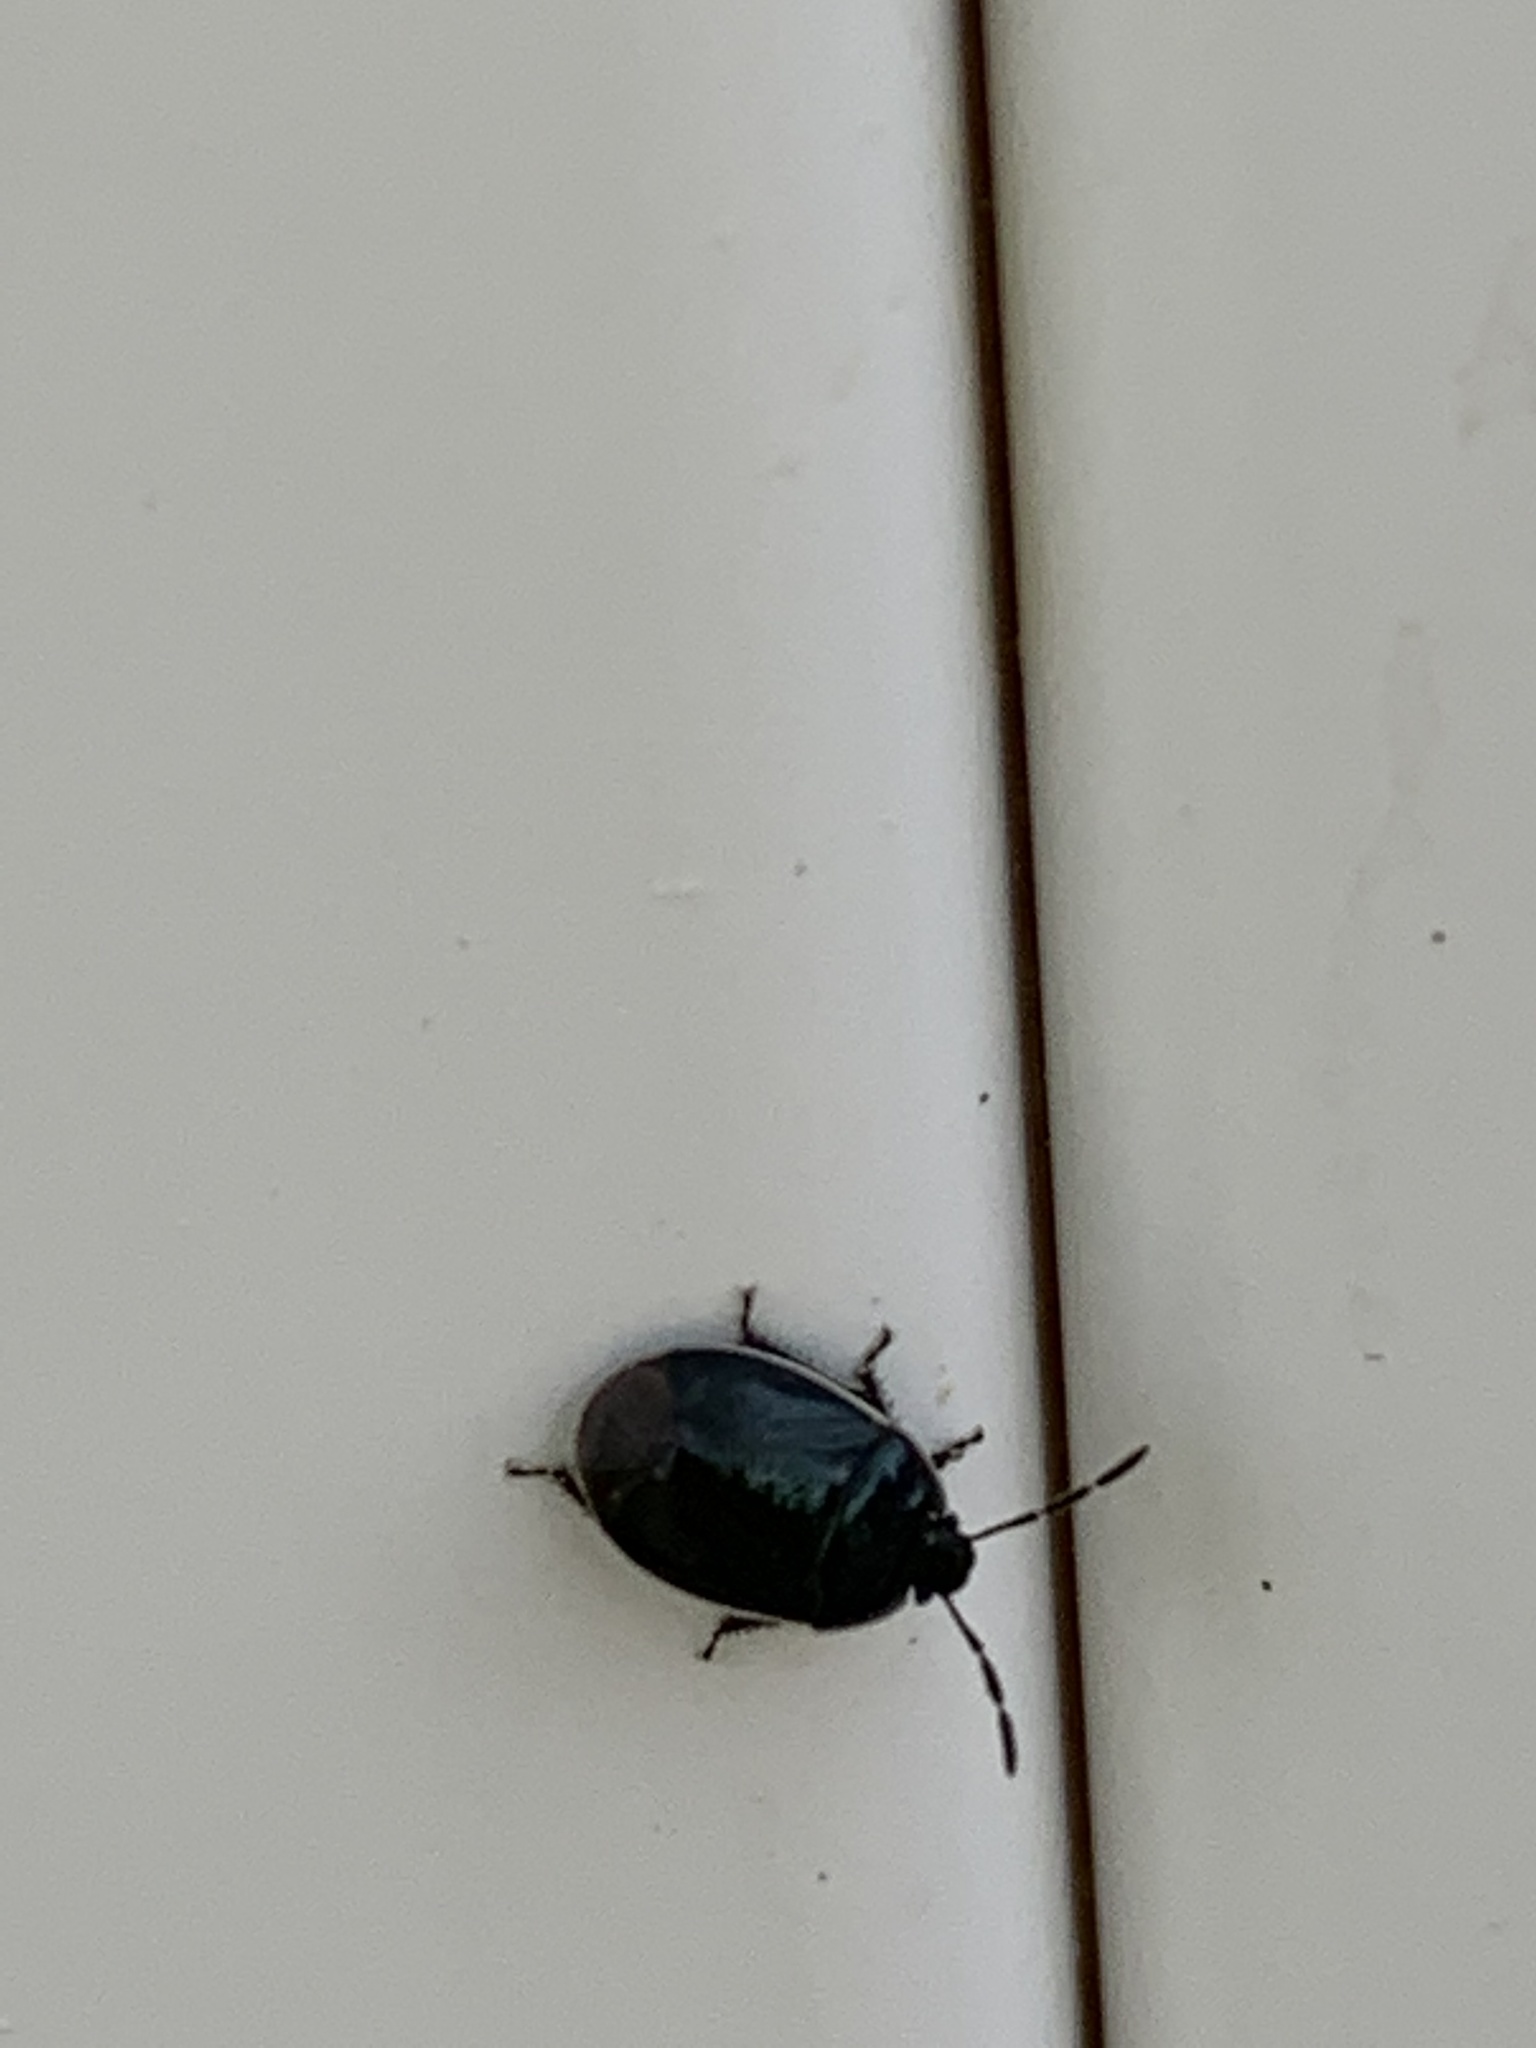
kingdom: Animalia
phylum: Arthropoda
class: Insecta
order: Hemiptera
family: Cydnidae
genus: Sehirus
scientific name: Sehirus cinctus
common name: White-margined burrower bug
